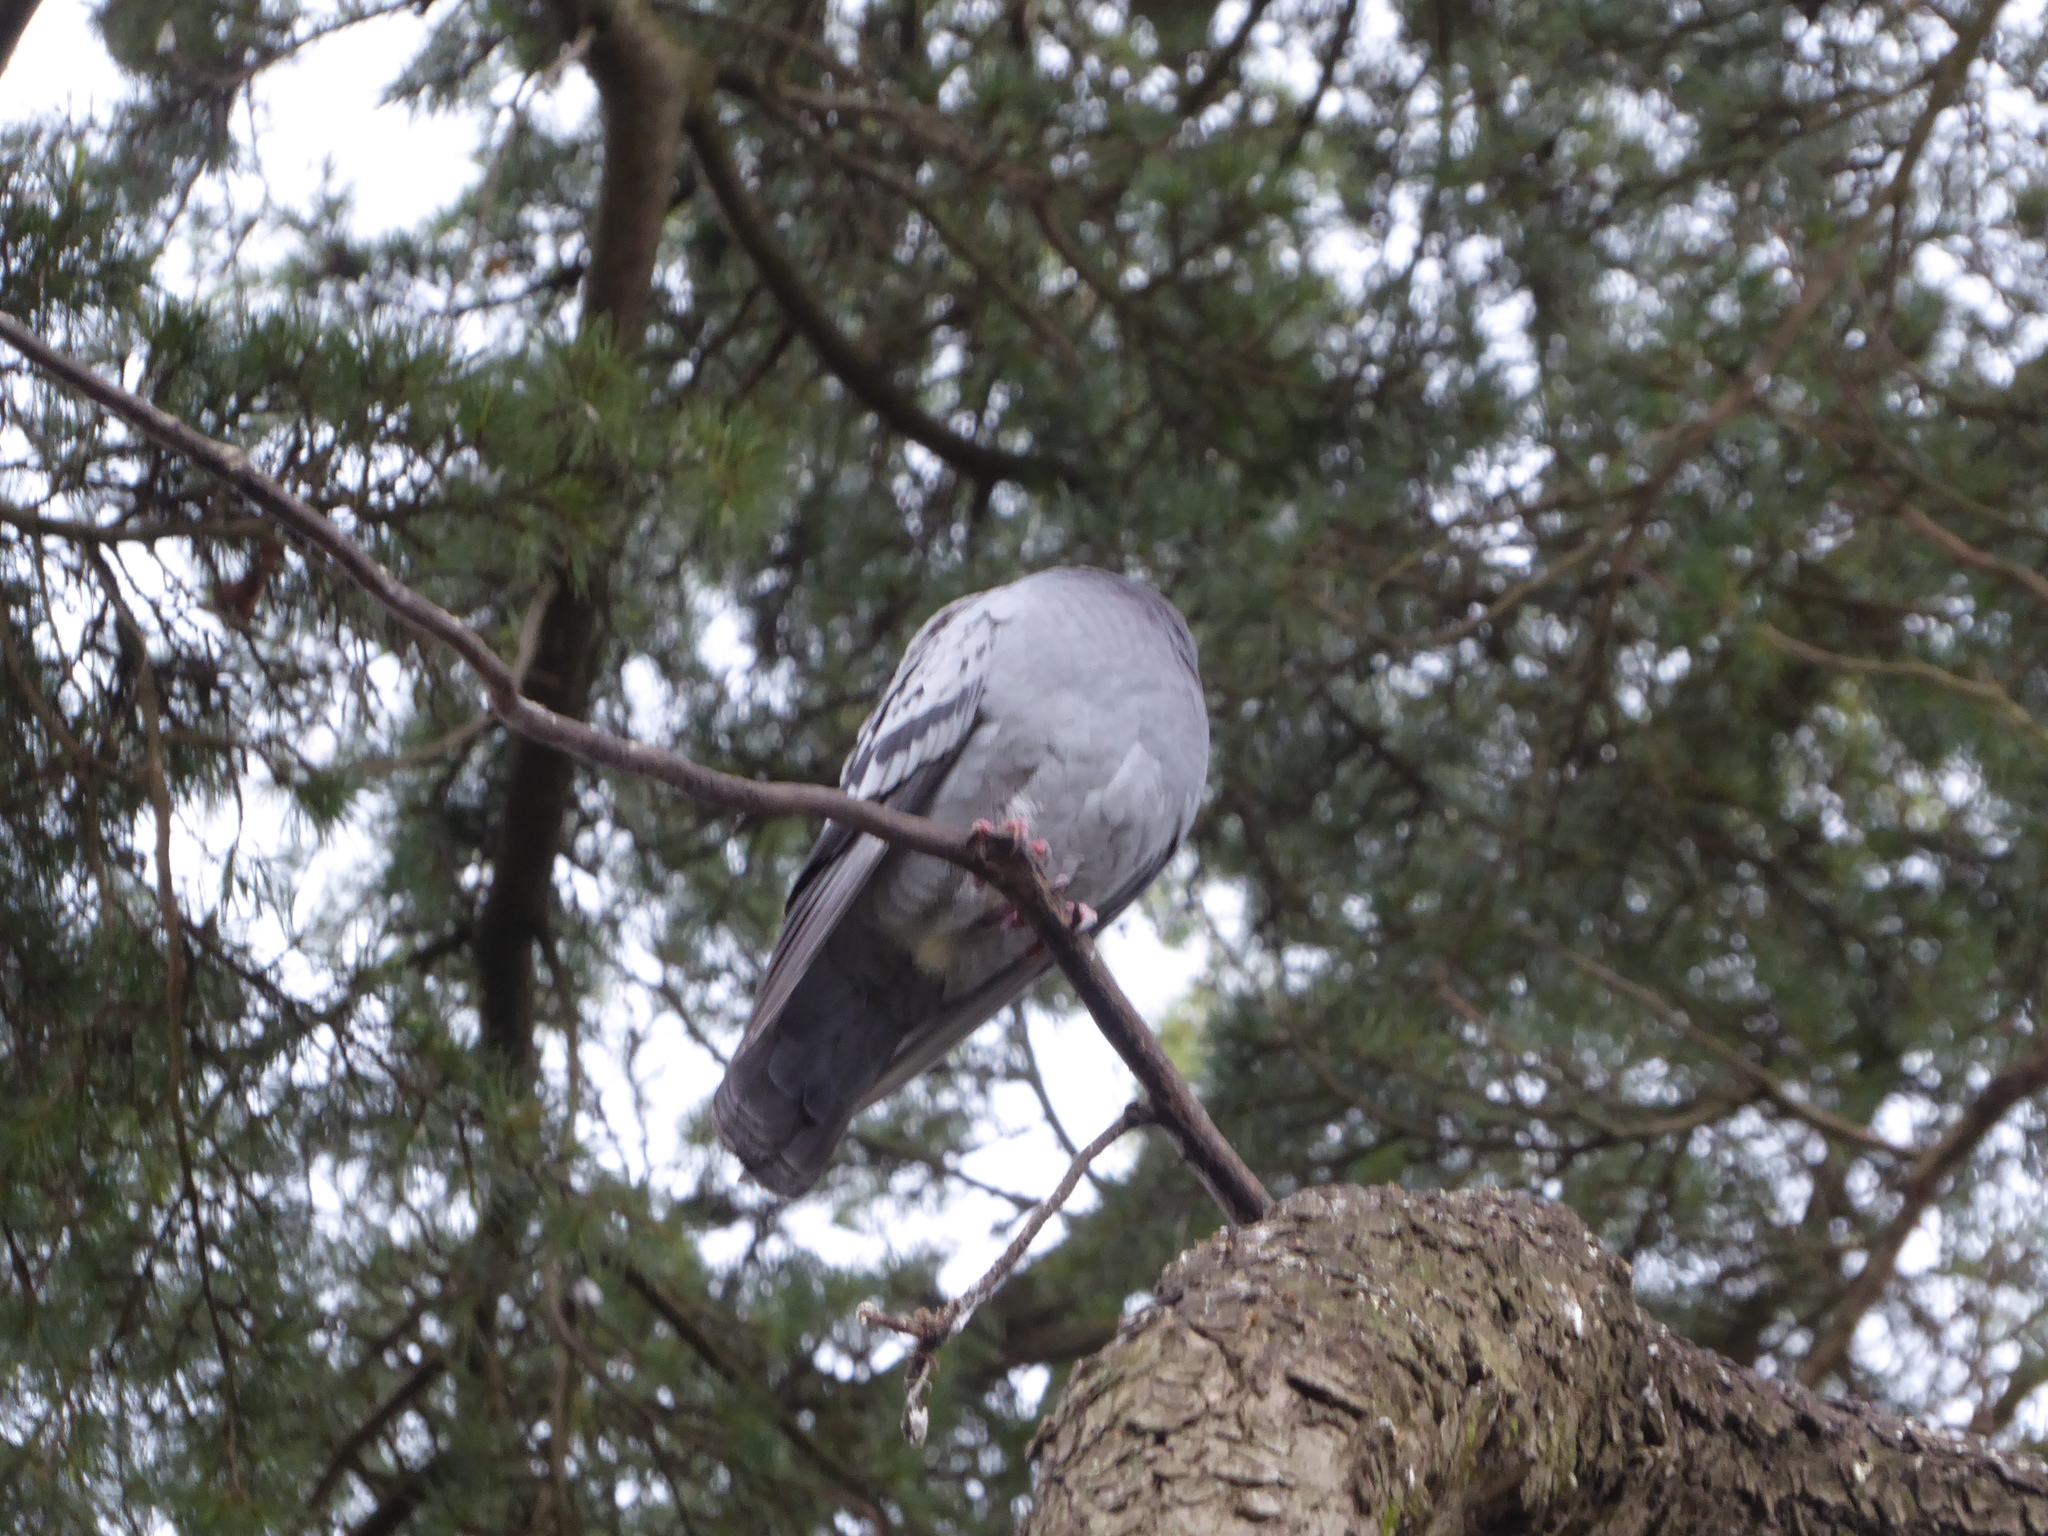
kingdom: Animalia
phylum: Chordata
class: Aves
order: Columbiformes
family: Columbidae
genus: Columba
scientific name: Columba livia
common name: Rock pigeon
